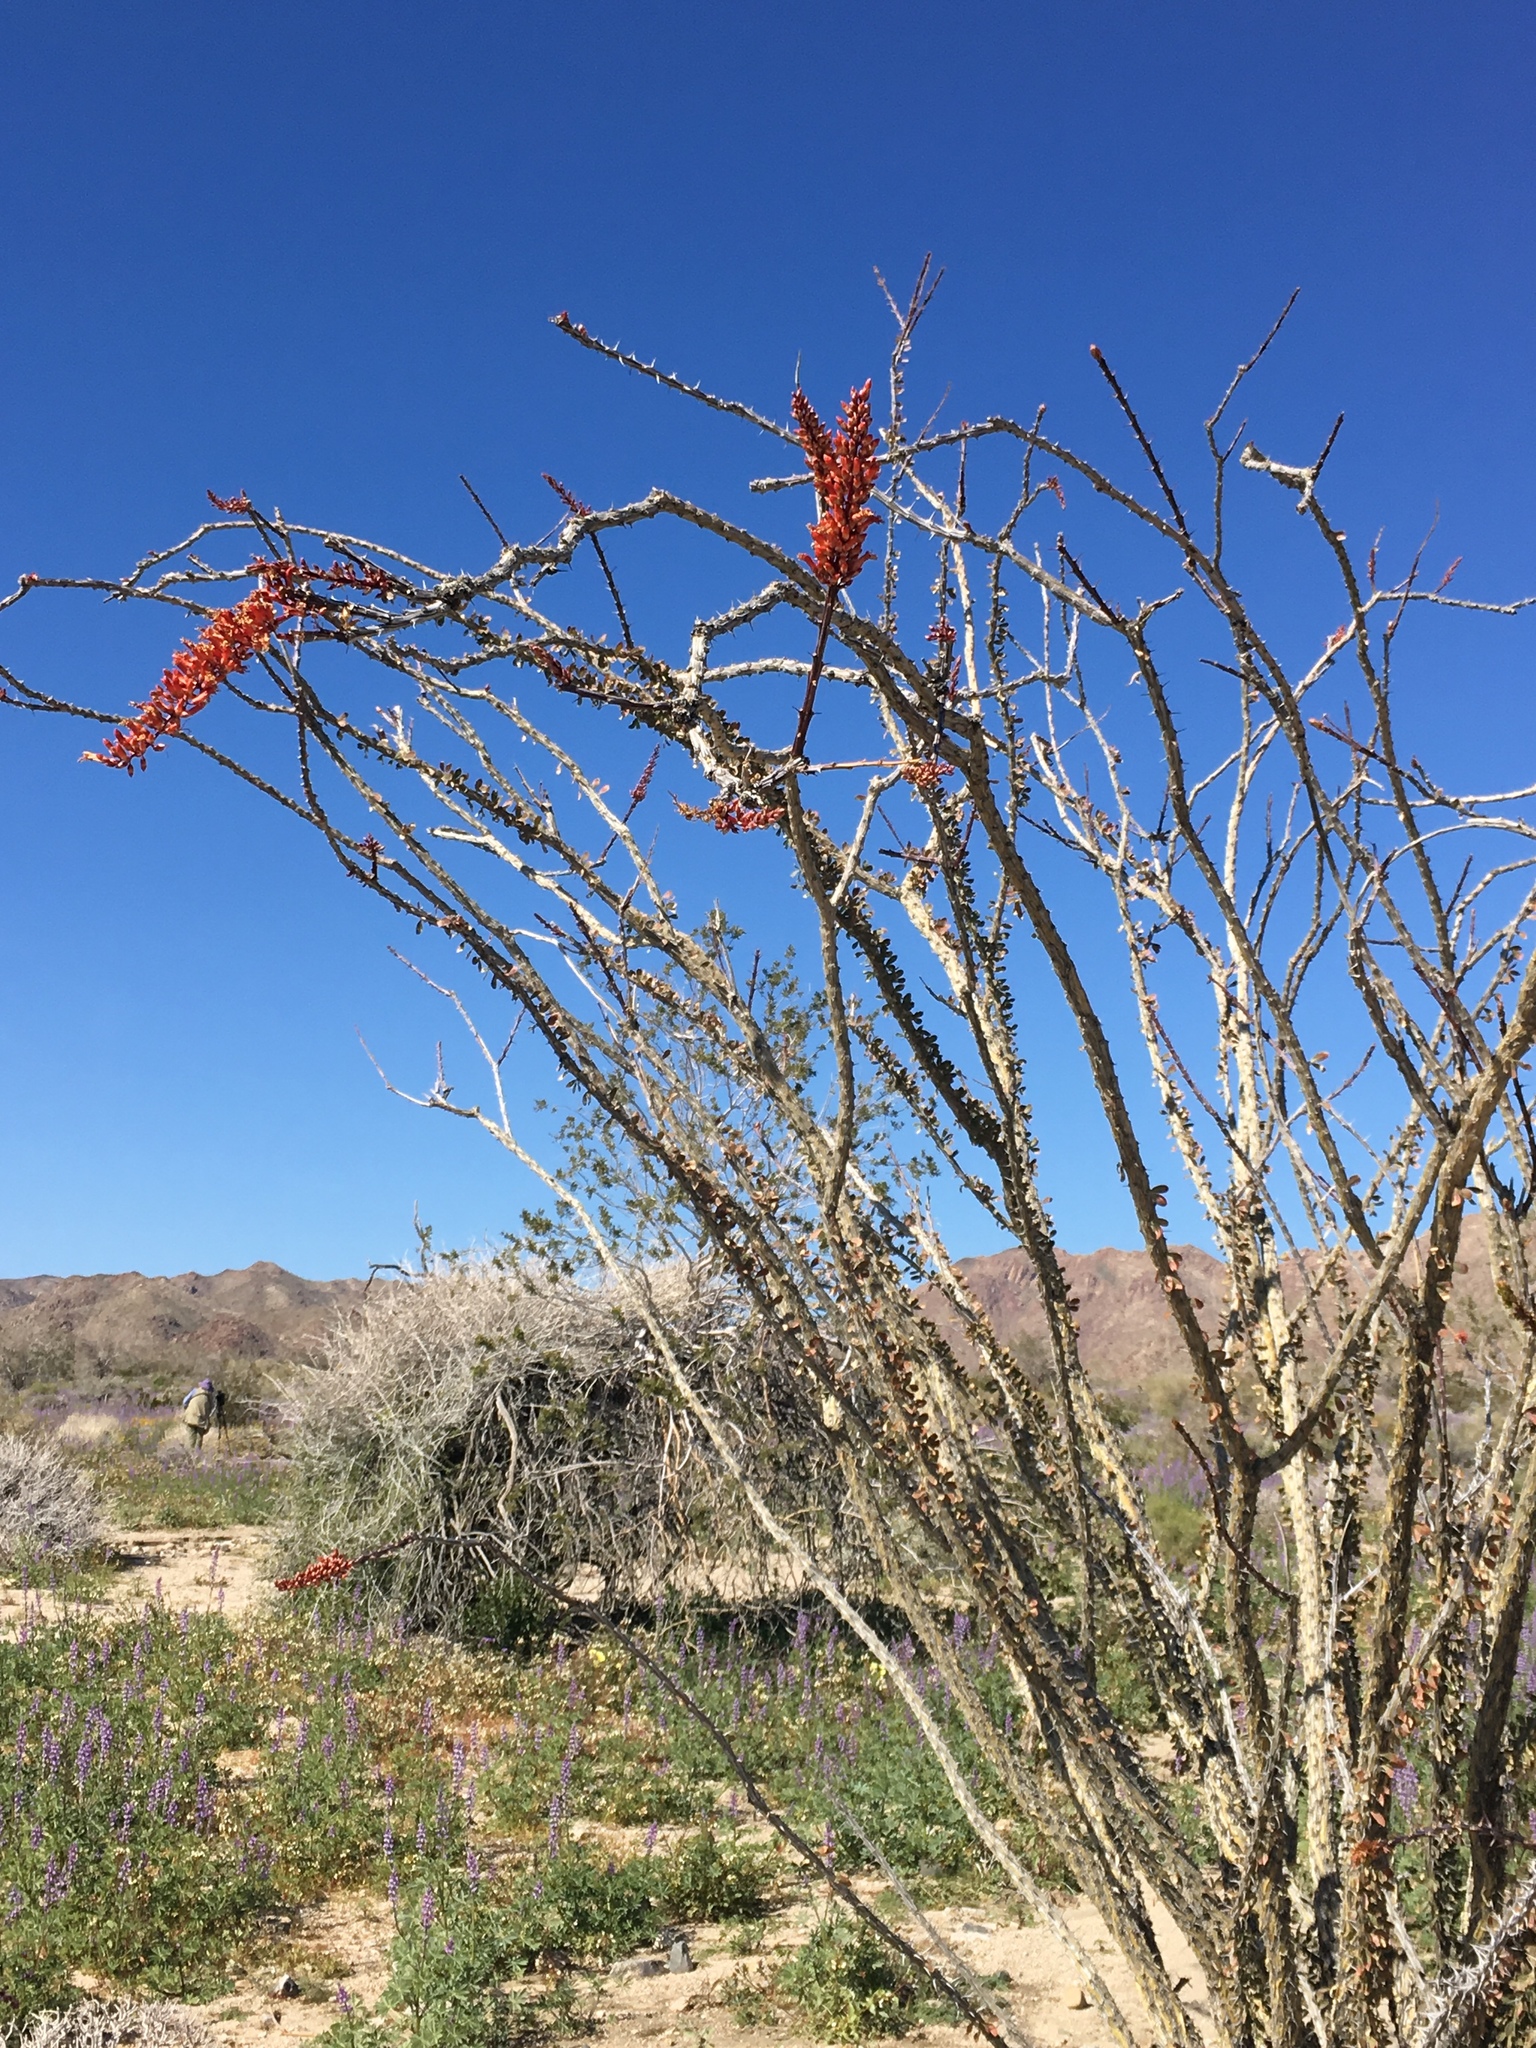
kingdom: Plantae
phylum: Tracheophyta
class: Magnoliopsida
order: Ericales
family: Fouquieriaceae
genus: Fouquieria
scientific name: Fouquieria splendens
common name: Vine-cactus
